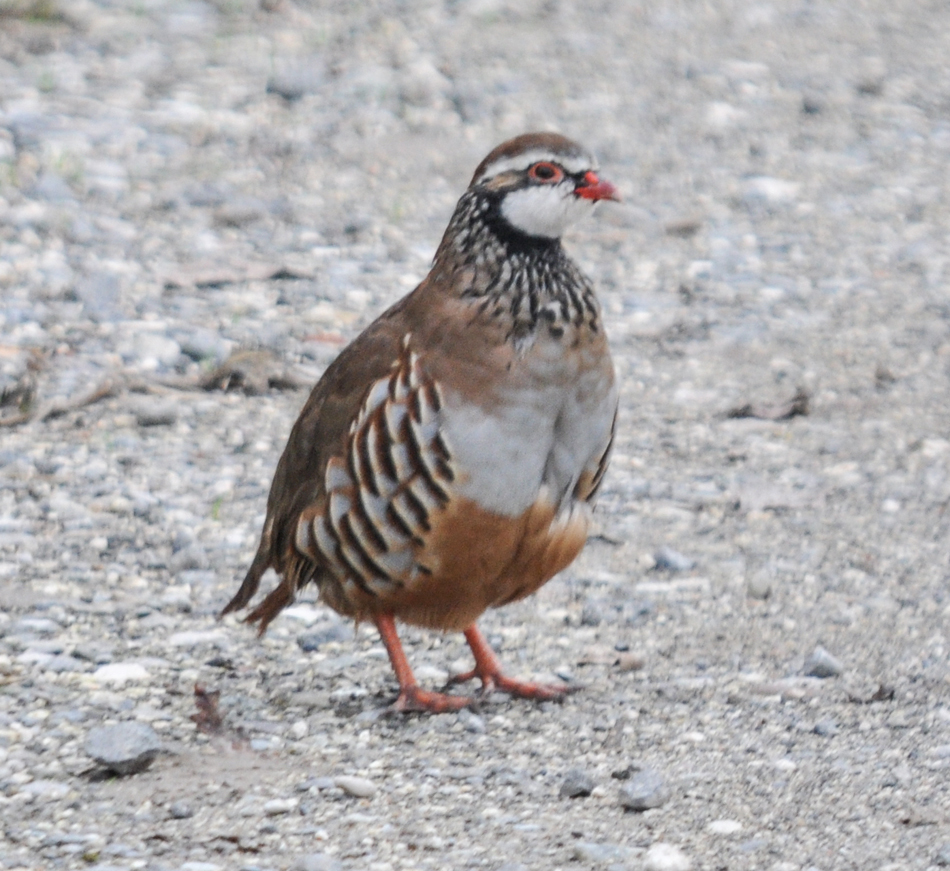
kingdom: Animalia
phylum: Chordata
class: Aves
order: Galliformes
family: Phasianidae
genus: Alectoris
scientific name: Alectoris rufa
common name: Red-legged partridge
